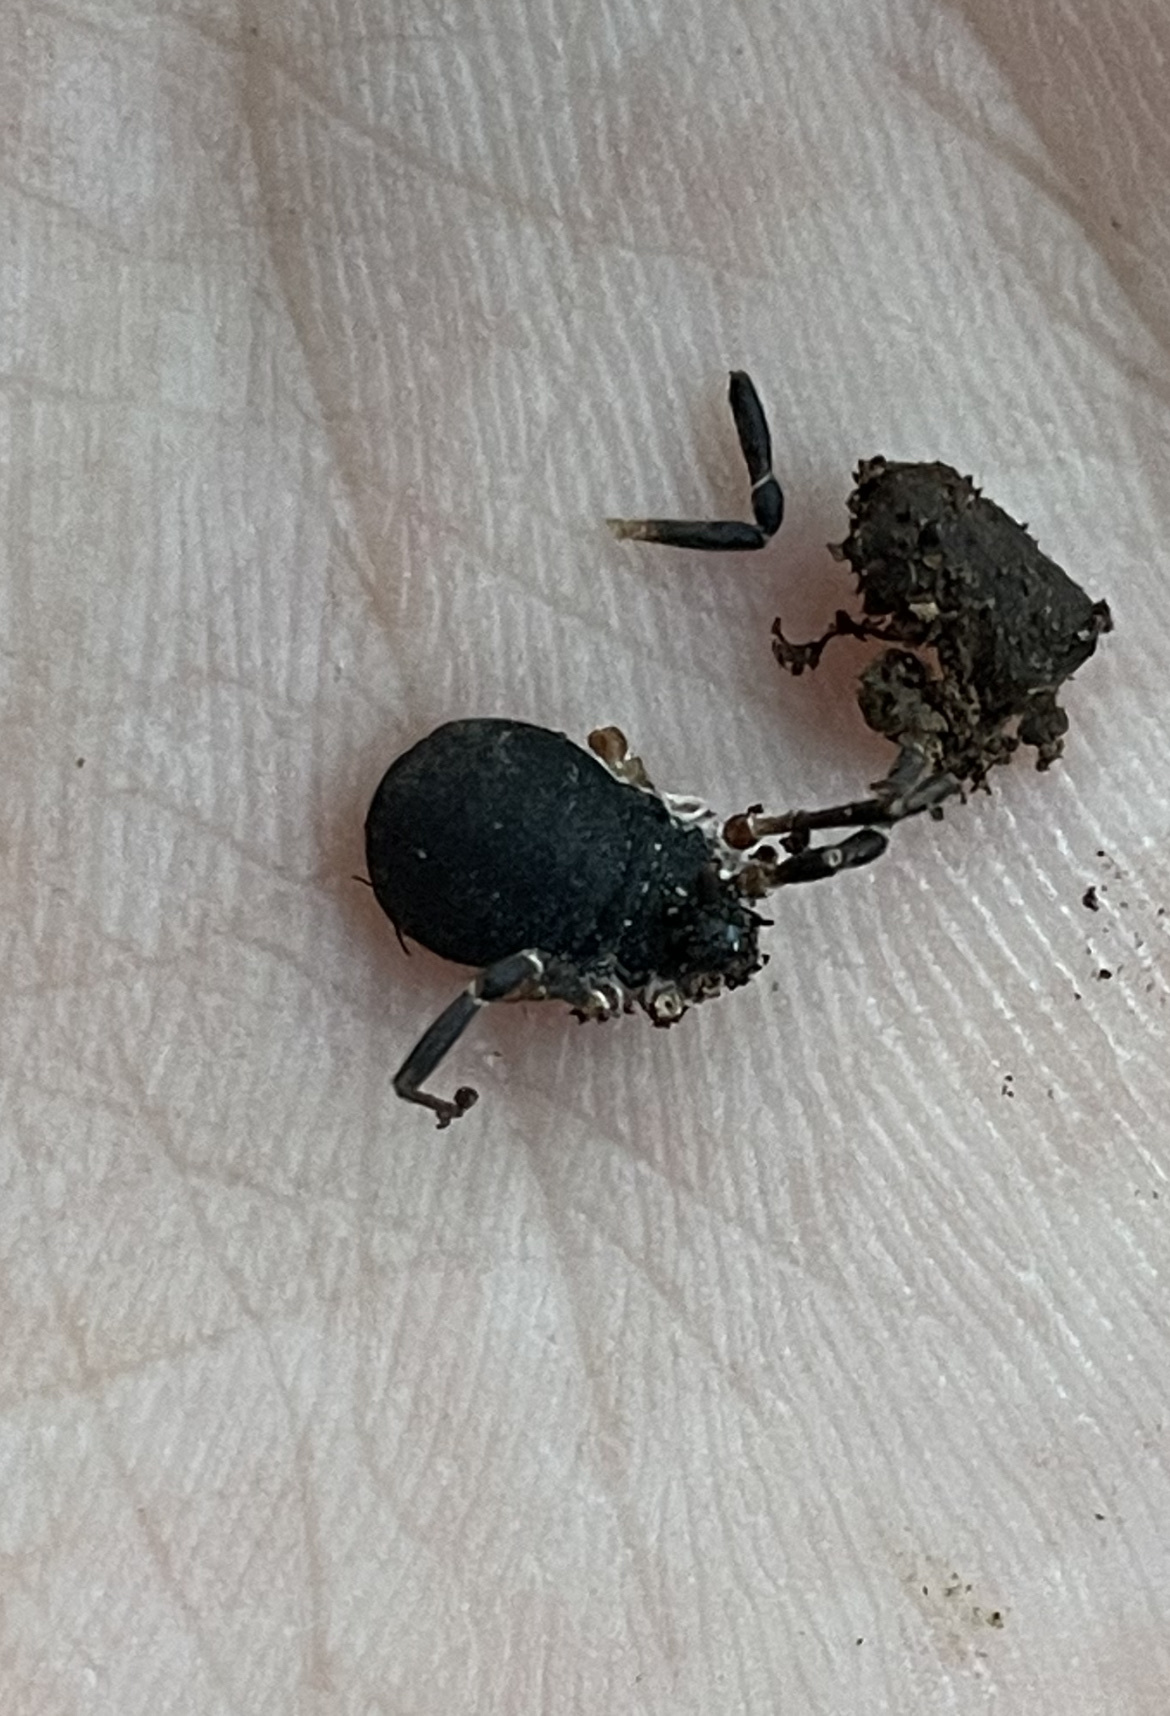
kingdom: Animalia
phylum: Arthropoda
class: Arachnida
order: Opiliones
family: Sclerosomatidae
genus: Eumesosoma
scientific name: Eumesosoma roeweri
